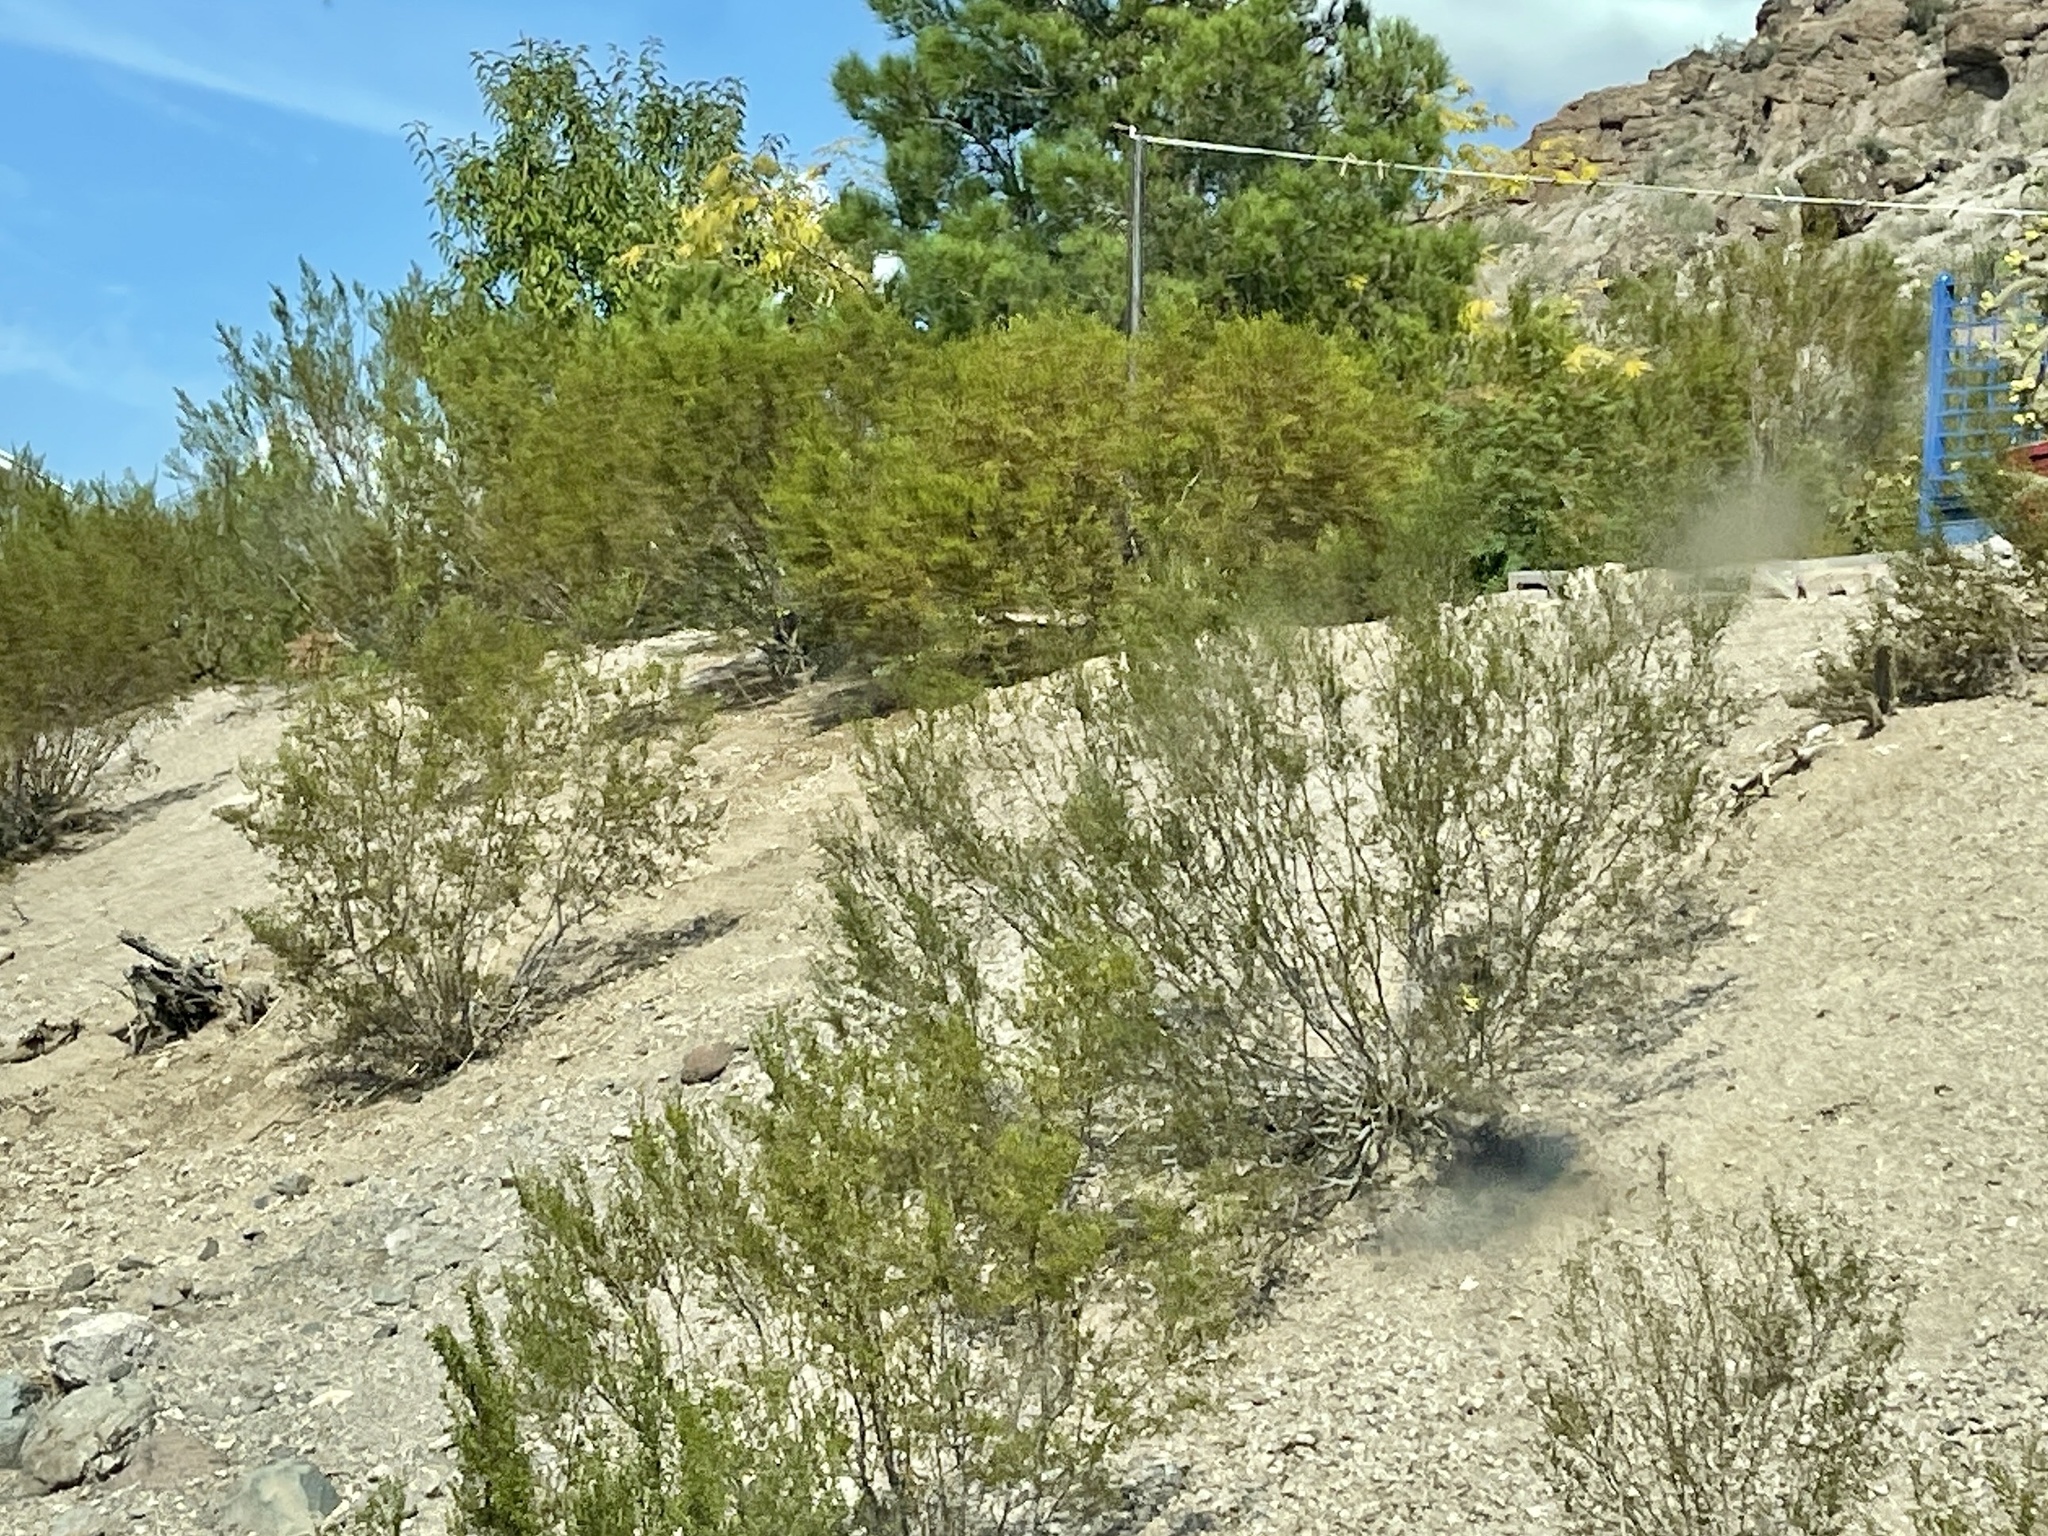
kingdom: Plantae
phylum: Tracheophyta
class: Magnoliopsida
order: Zygophyllales
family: Zygophyllaceae
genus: Larrea
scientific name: Larrea tridentata
